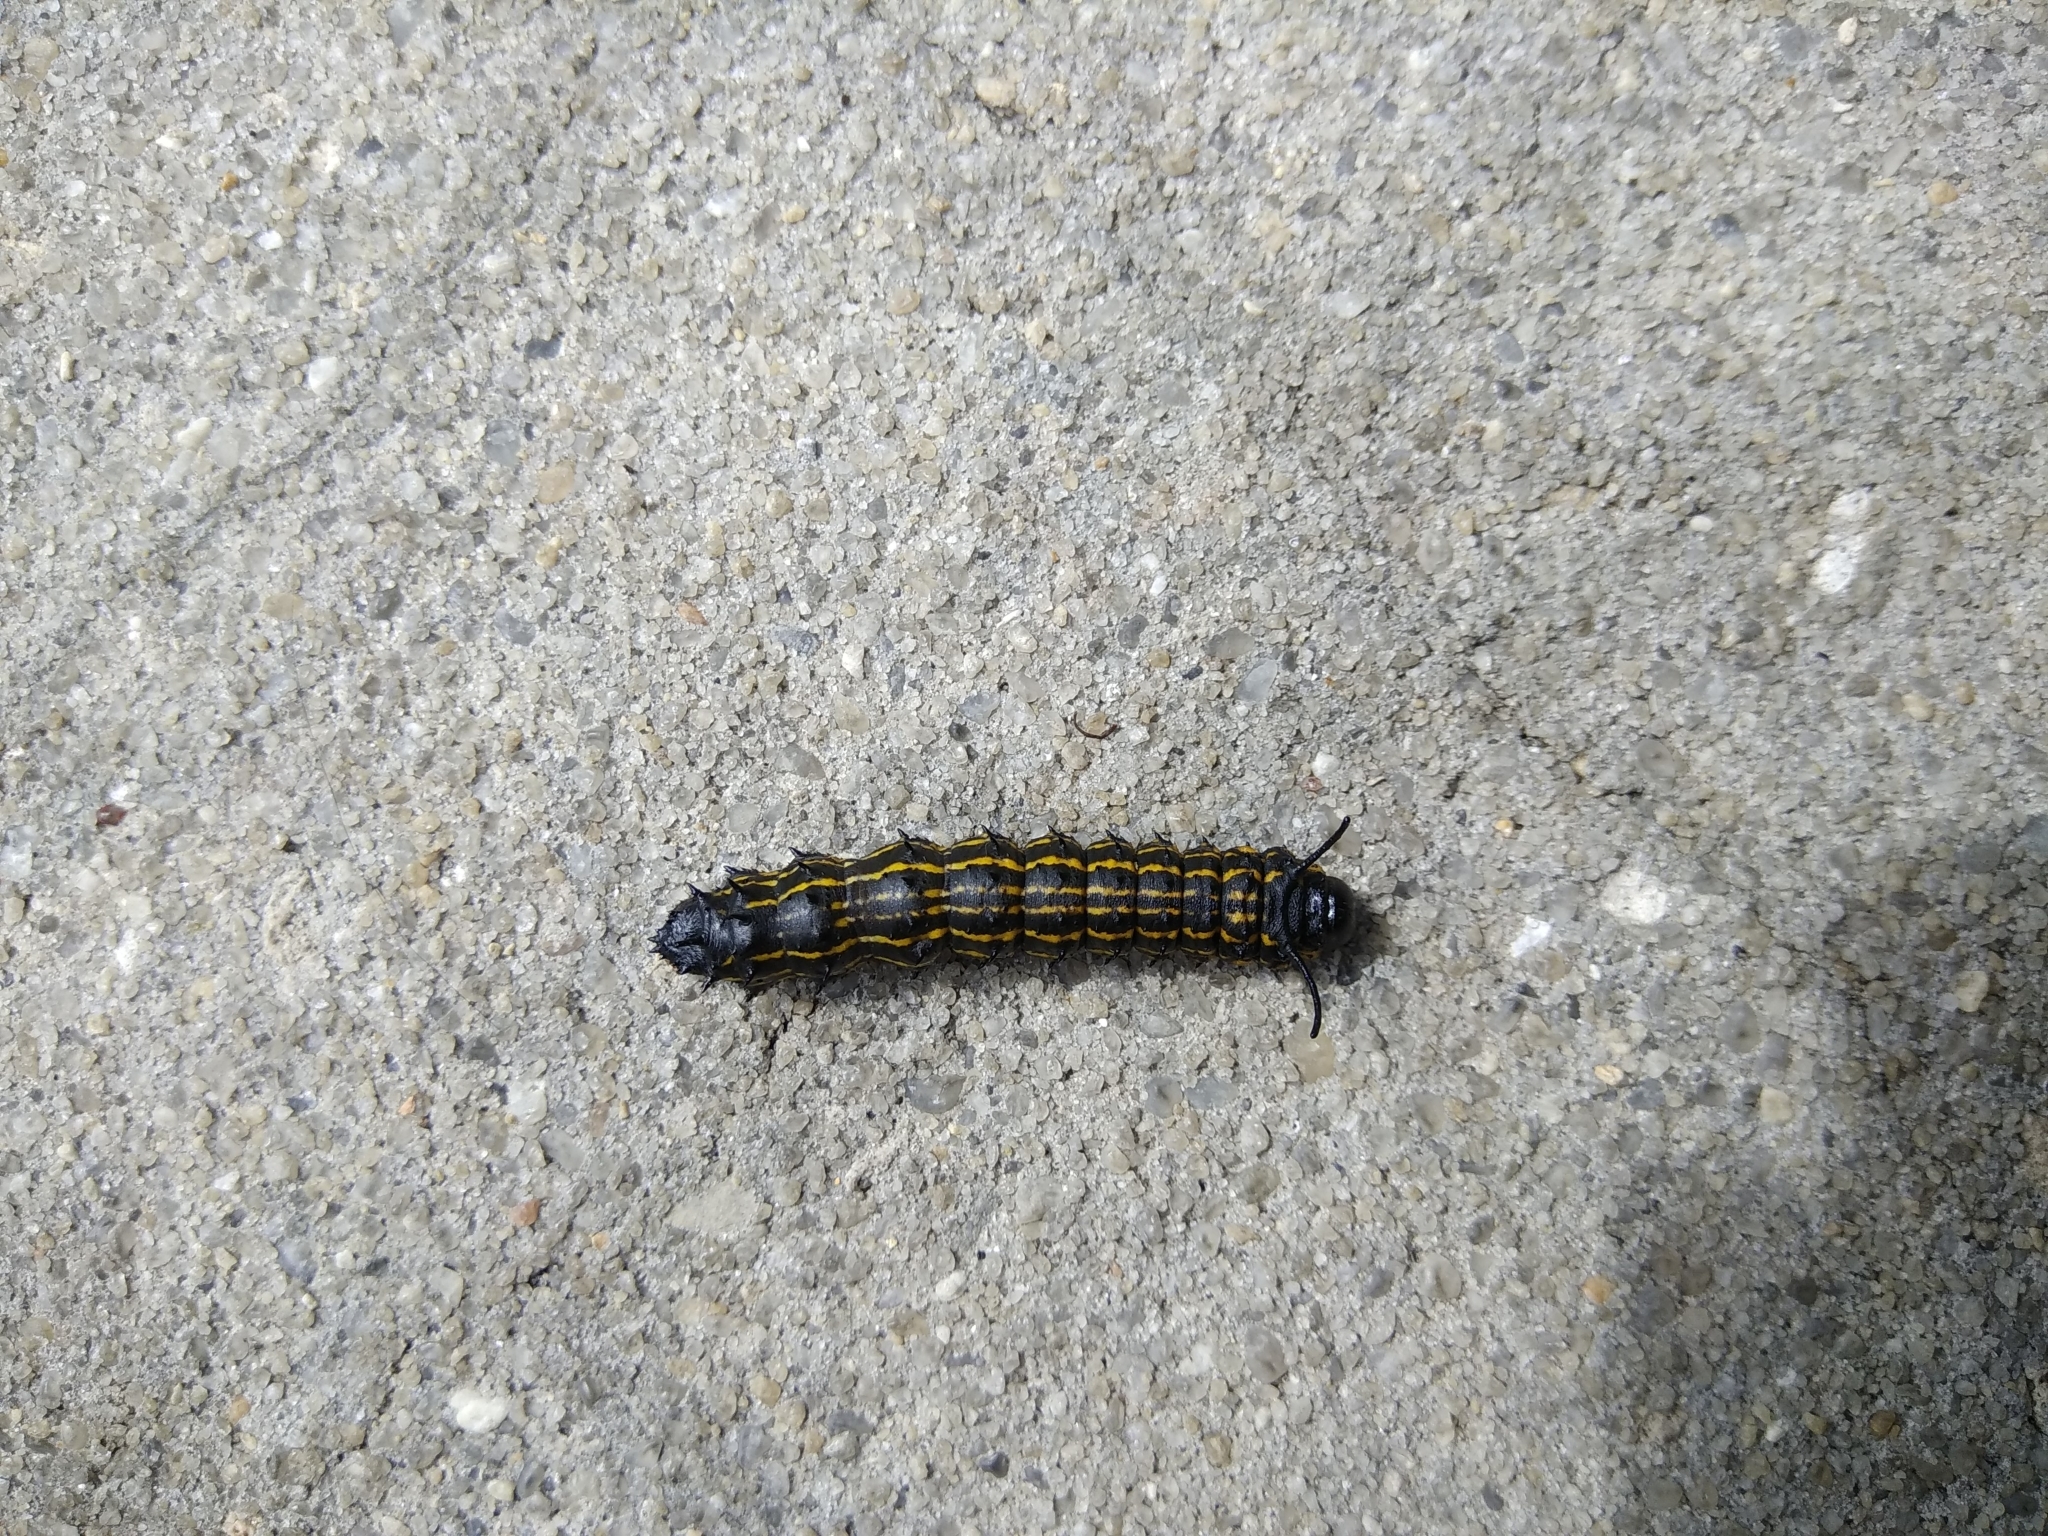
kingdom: Animalia
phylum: Arthropoda
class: Insecta
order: Lepidoptera
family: Saturniidae
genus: Anisota
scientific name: Anisota peigleri
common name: Peigler's oakworm moth
